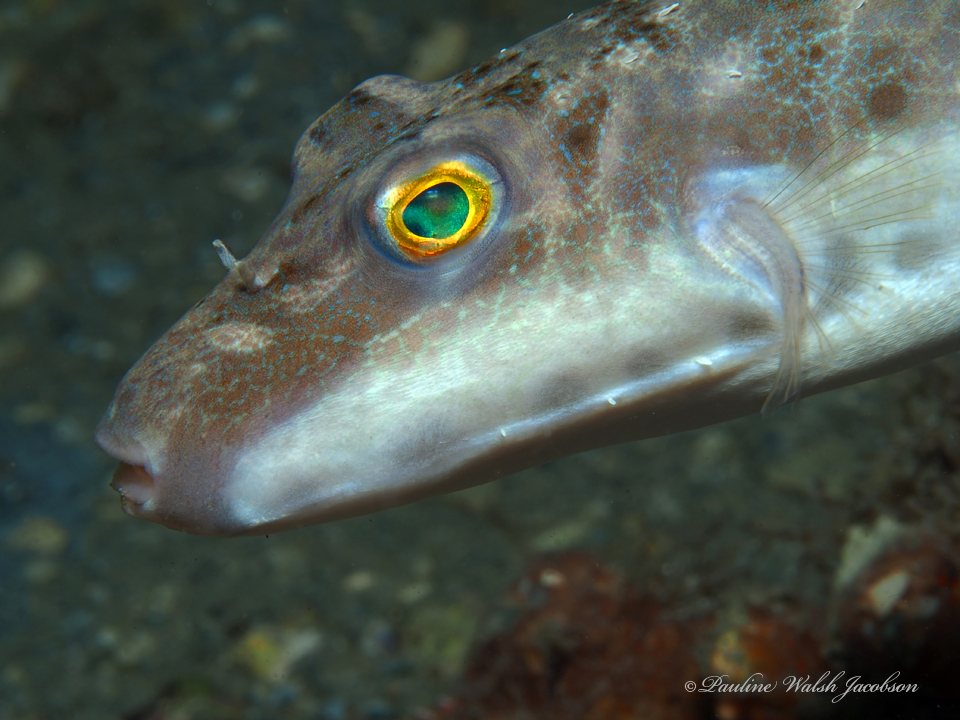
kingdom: Animalia
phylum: Chordata
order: Tetraodontiformes
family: Tetraodontidae
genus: Sphoeroides
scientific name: Sphoeroides spengleri
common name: Bandtail puffer
